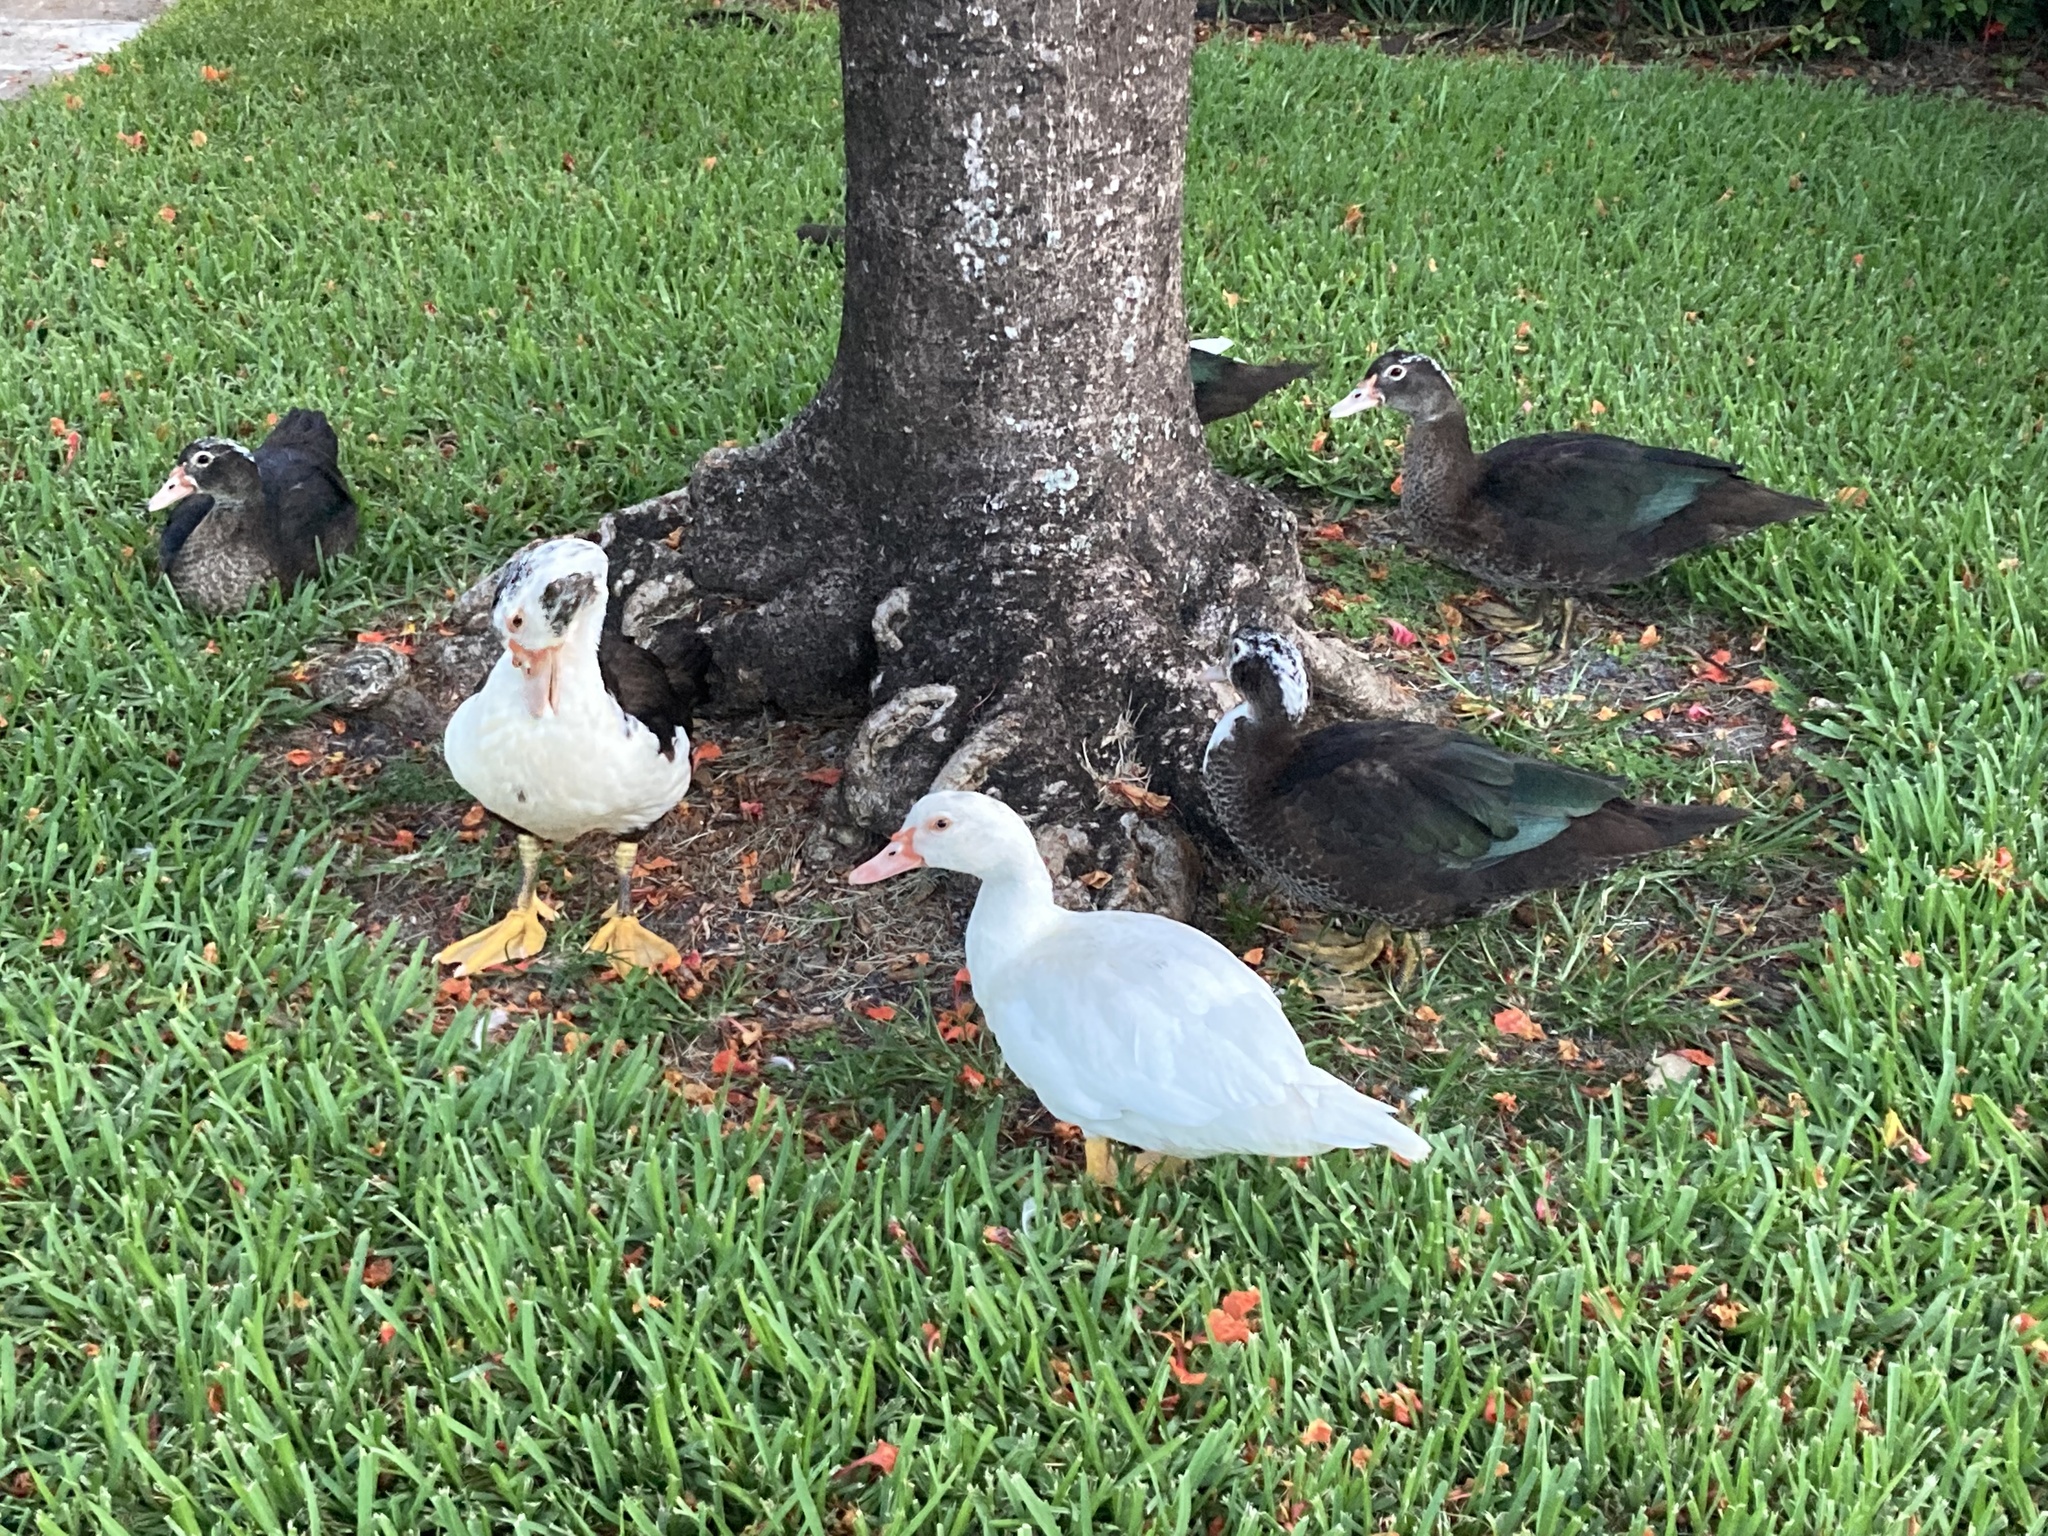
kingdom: Animalia
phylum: Chordata
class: Aves
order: Anseriformes
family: Anatidae
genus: Cairina
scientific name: Cairina moschata
